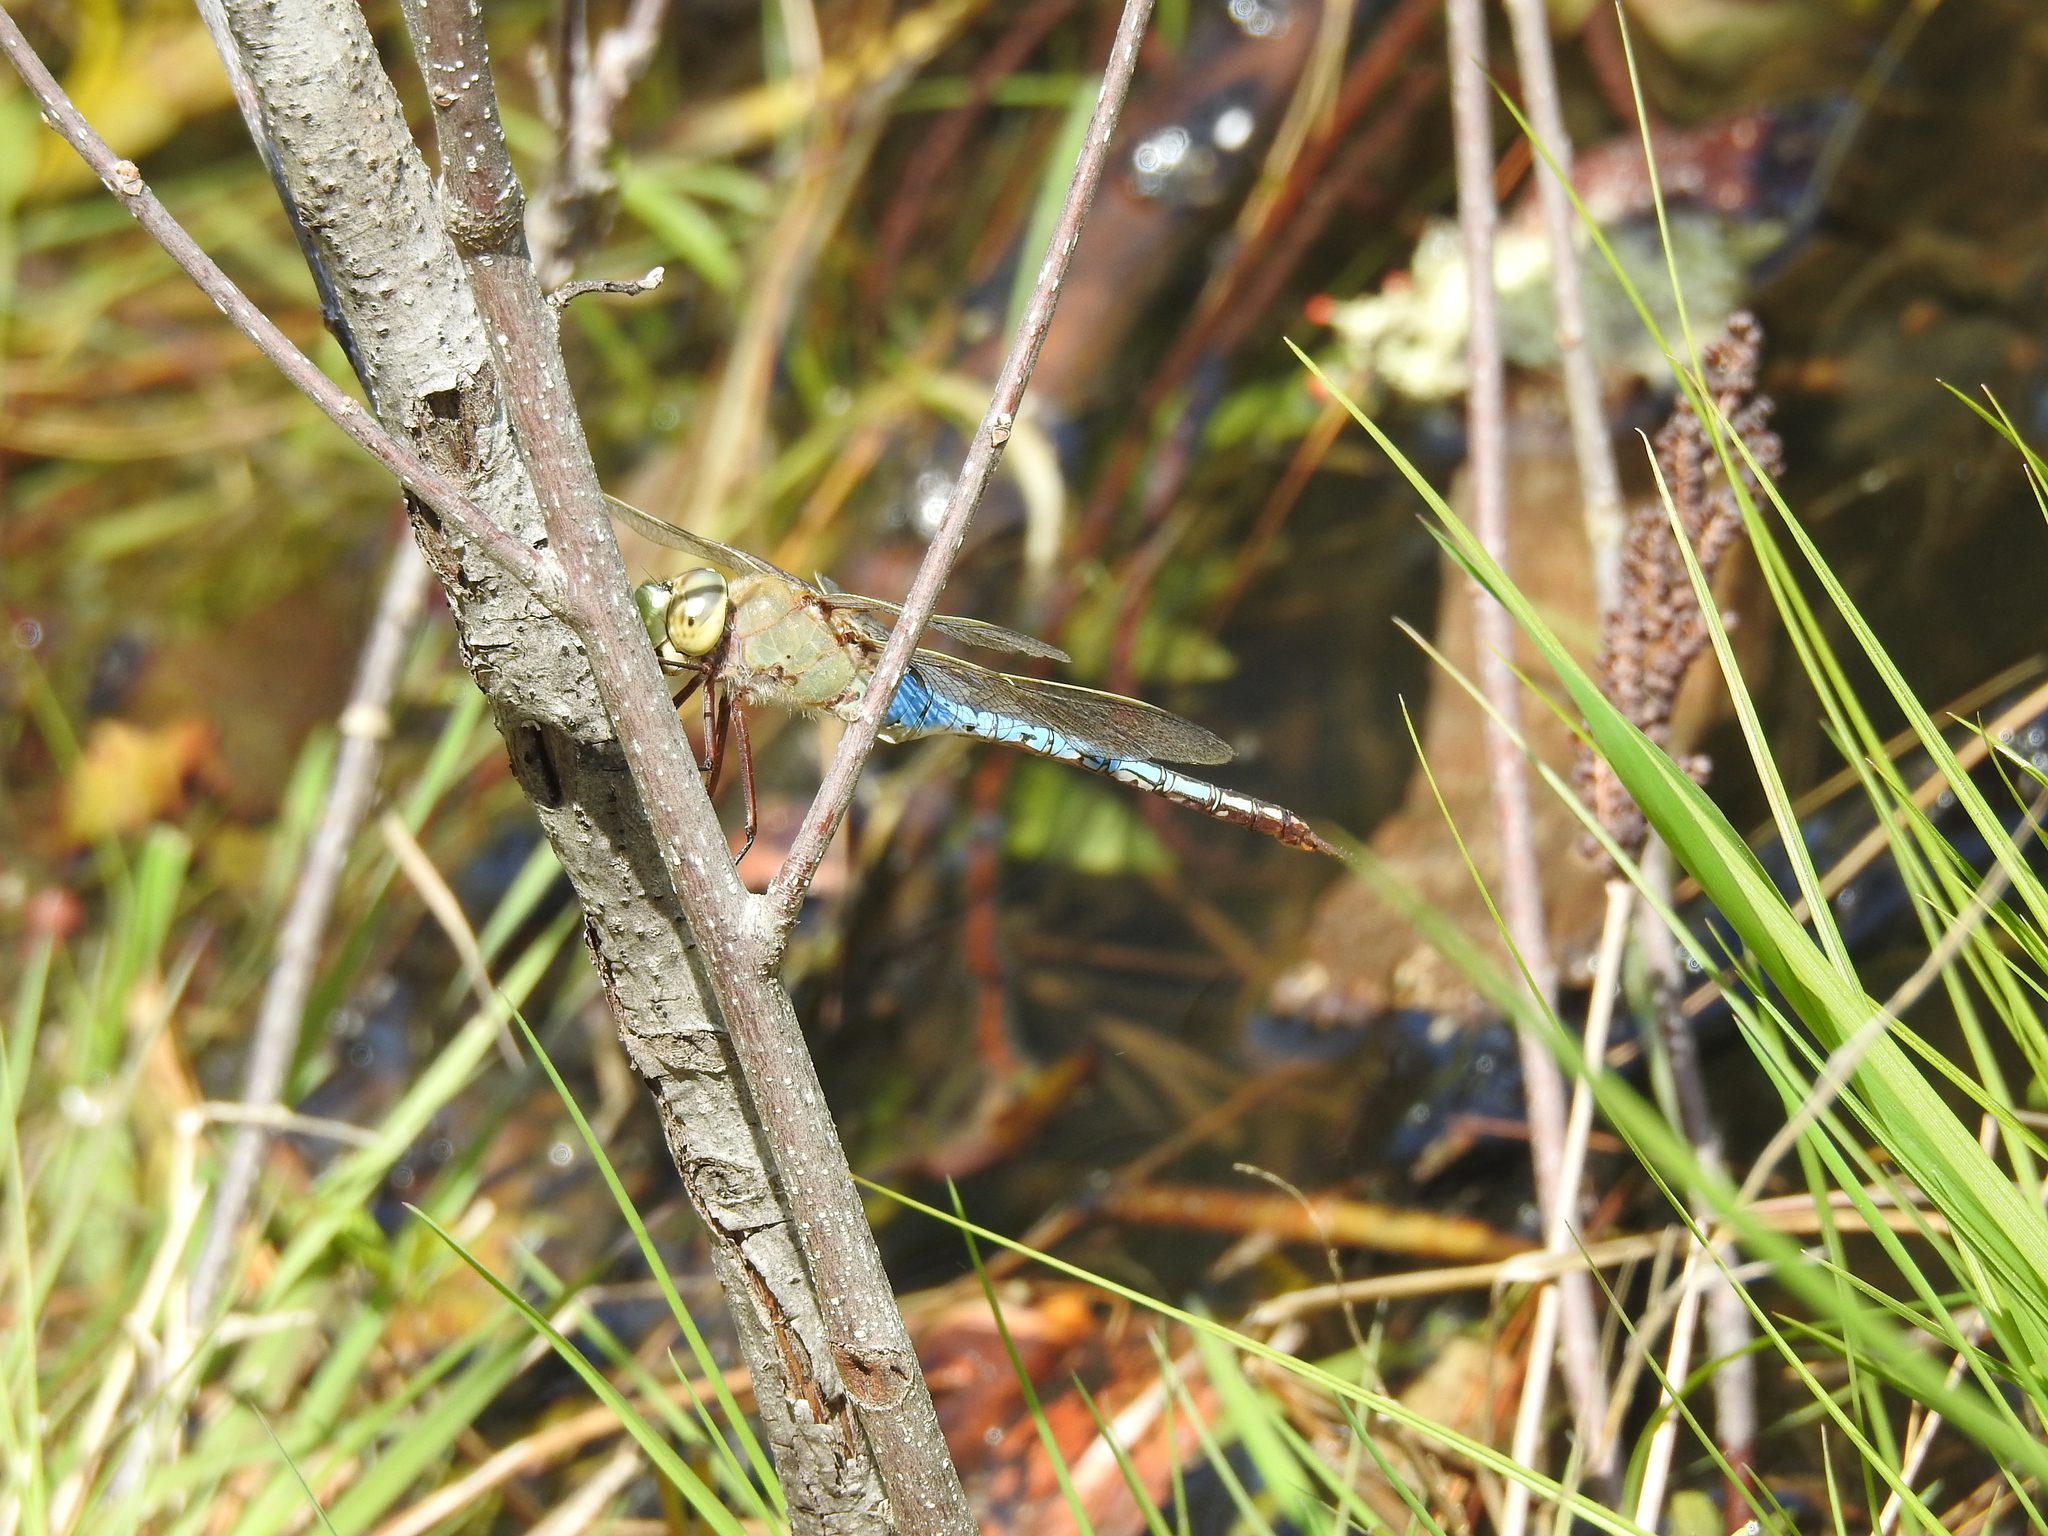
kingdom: Animalia
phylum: Arthropoda
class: Insecta
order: Odonata
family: Aeshnidae
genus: Anax
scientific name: Anax junius
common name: Common green darner
